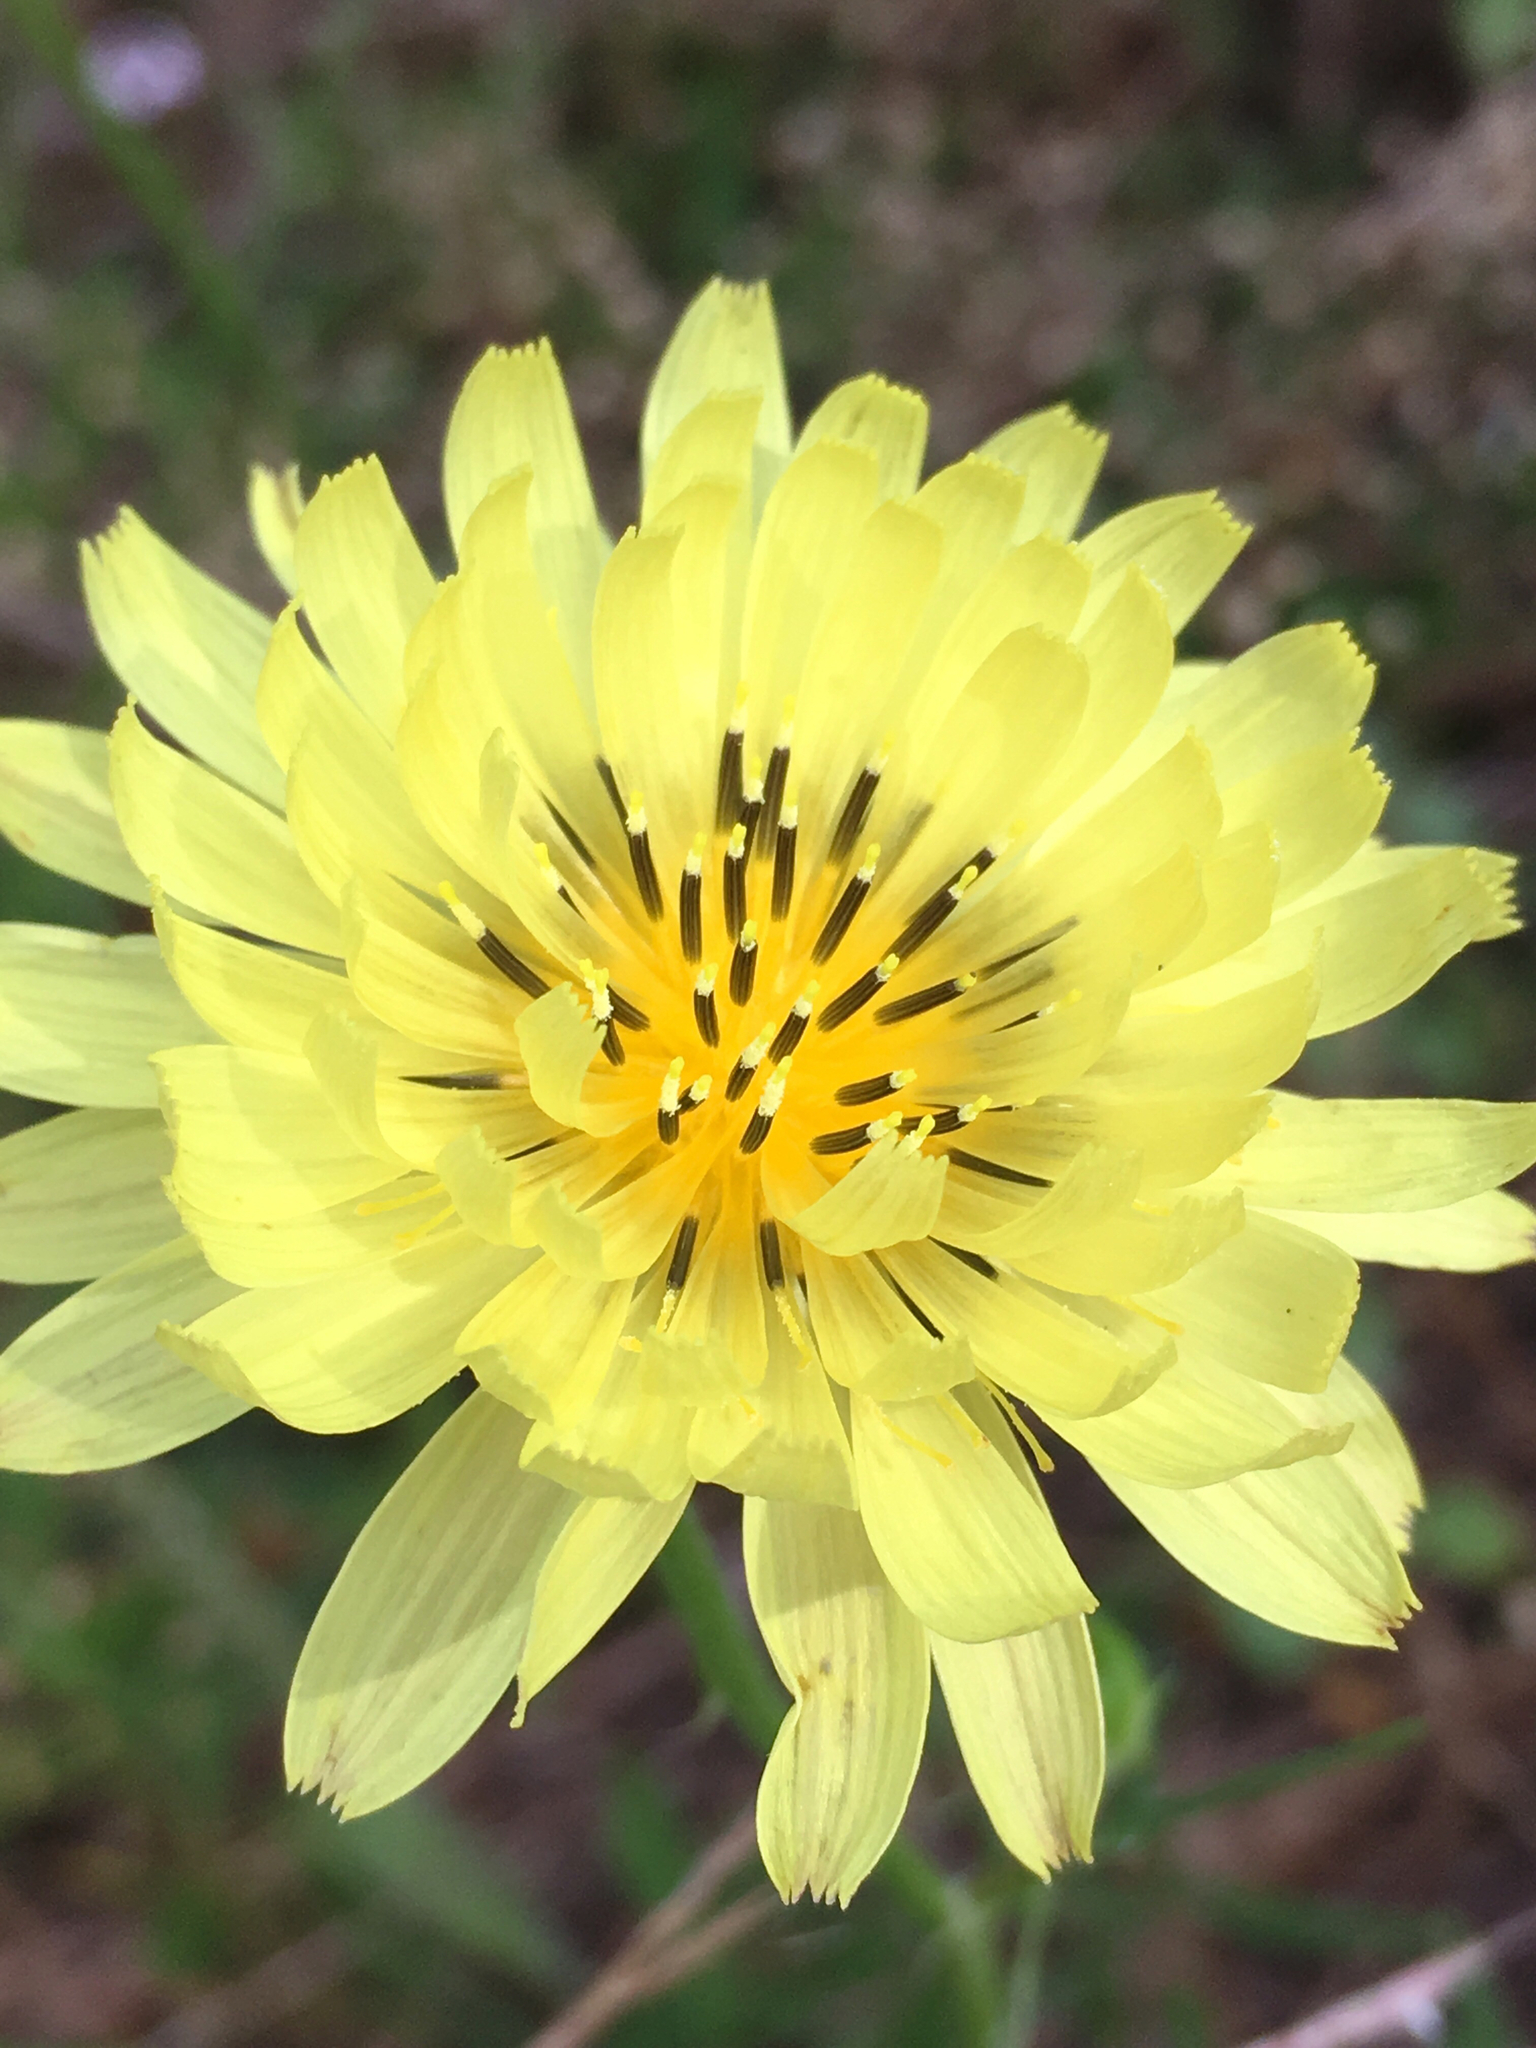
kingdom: Plantae
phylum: Tracheophyta
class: Magnoliopsida
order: Asterales
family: Asteraceae
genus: Pyrrhopappus
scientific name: Pyrrhopappus pauciflorus
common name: Texas false dandelion
